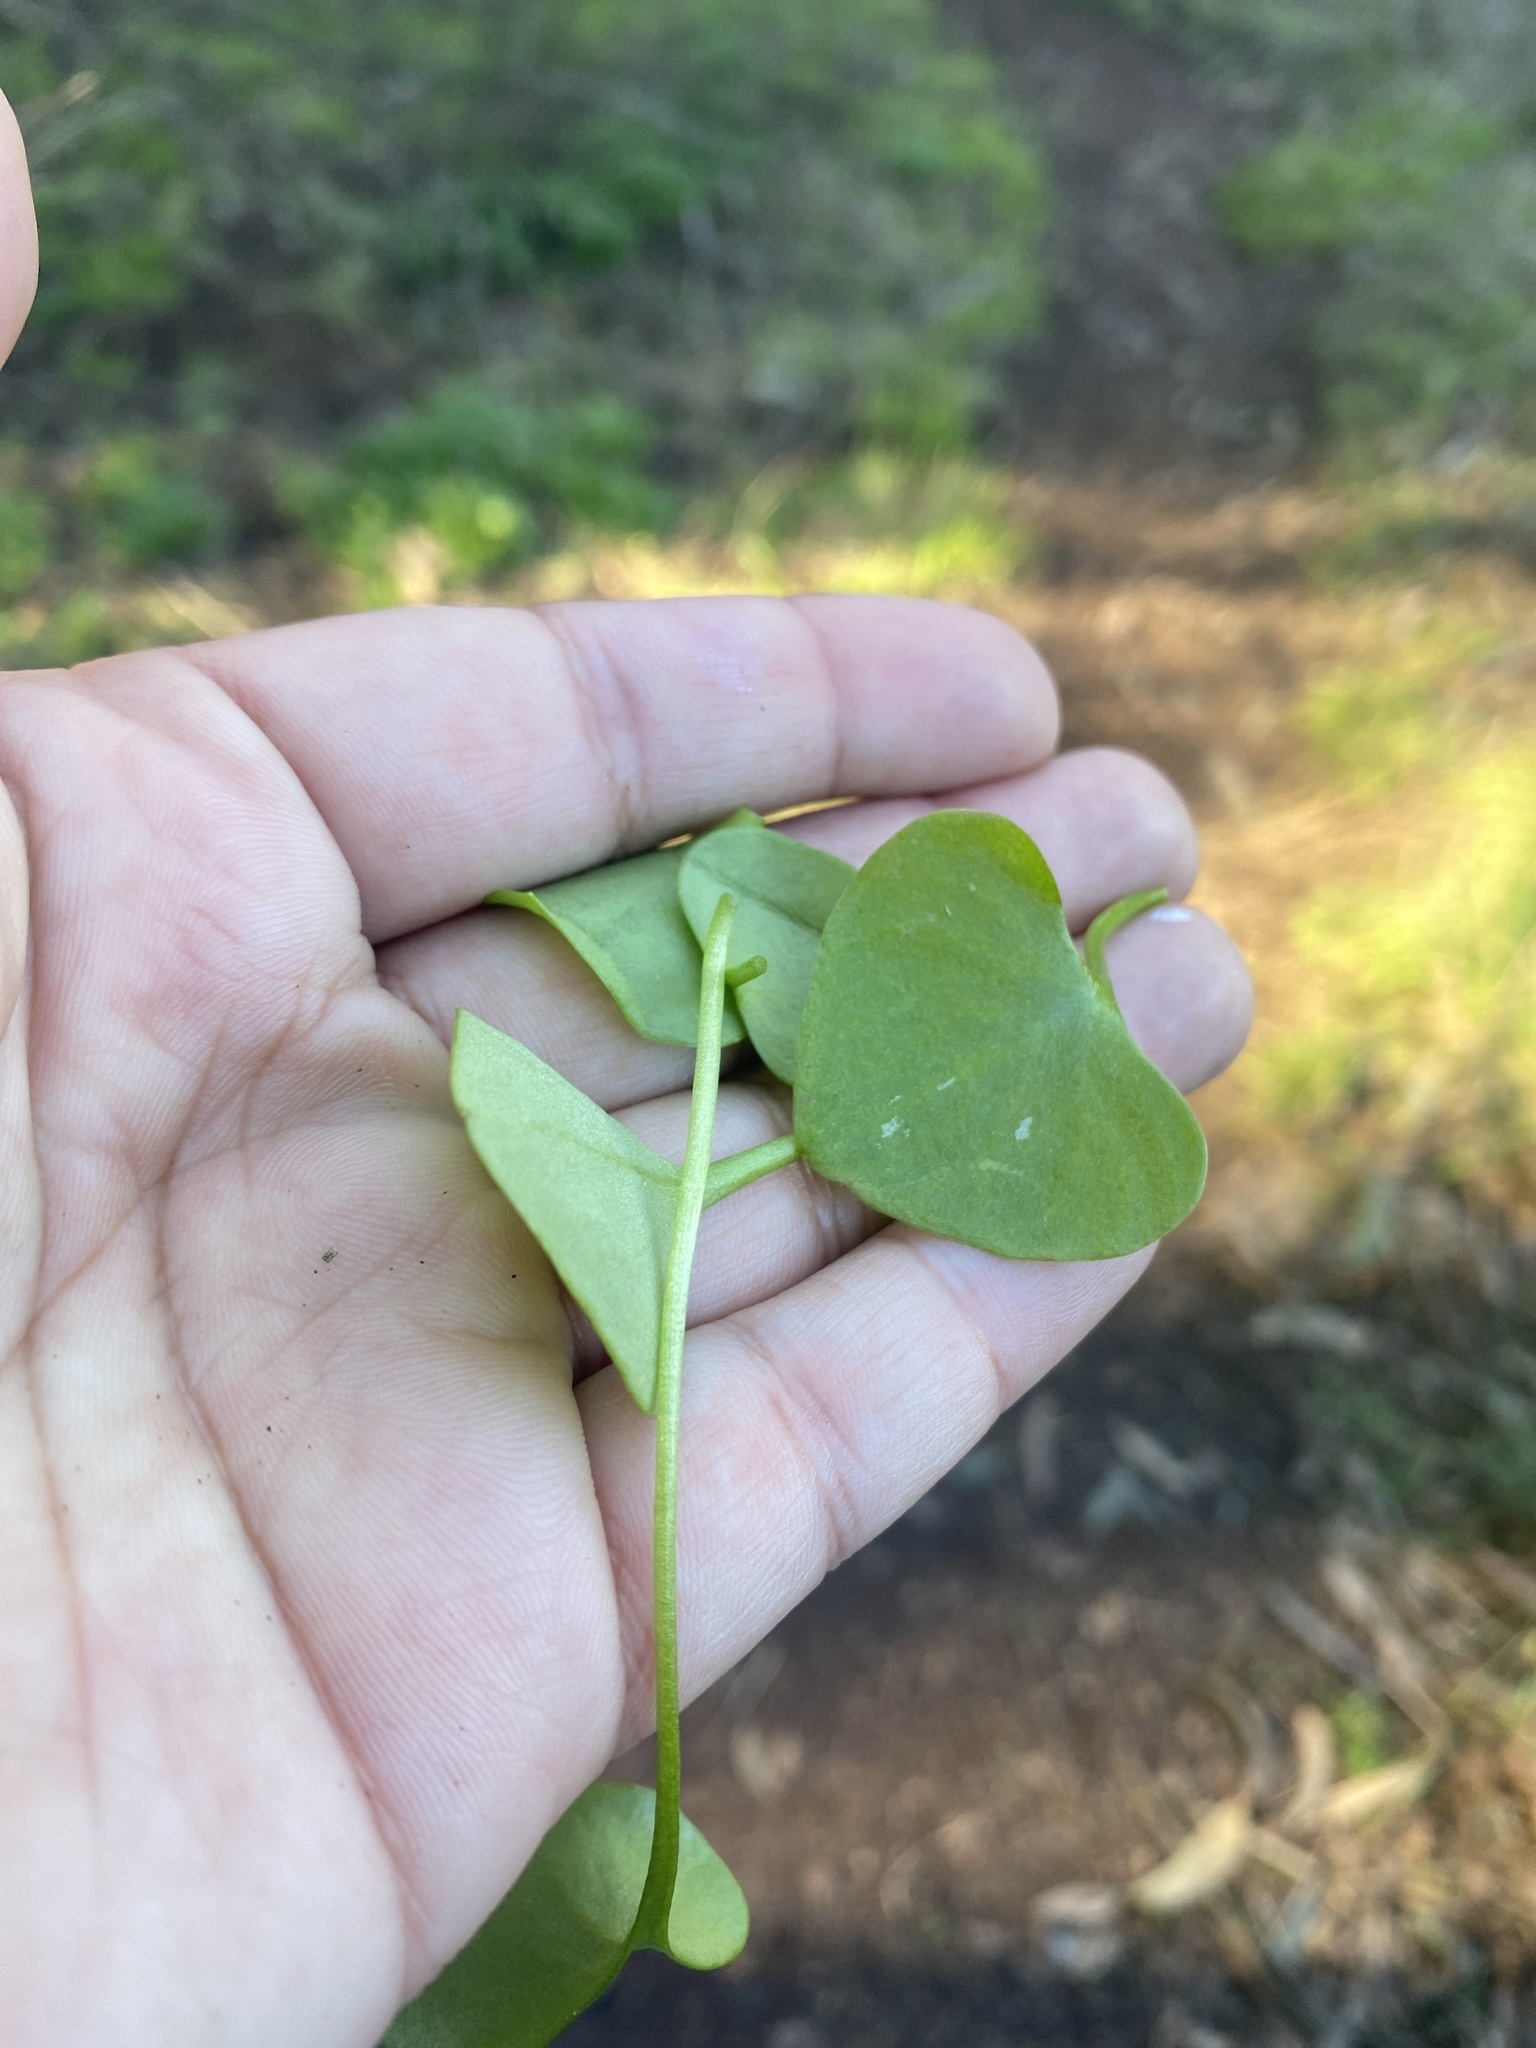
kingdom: Plantae
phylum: Tracheophyta
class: Magnoliopsida
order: Caryophyllales
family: Montiaceae
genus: Claytonia
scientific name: Claytonia perfoliata
